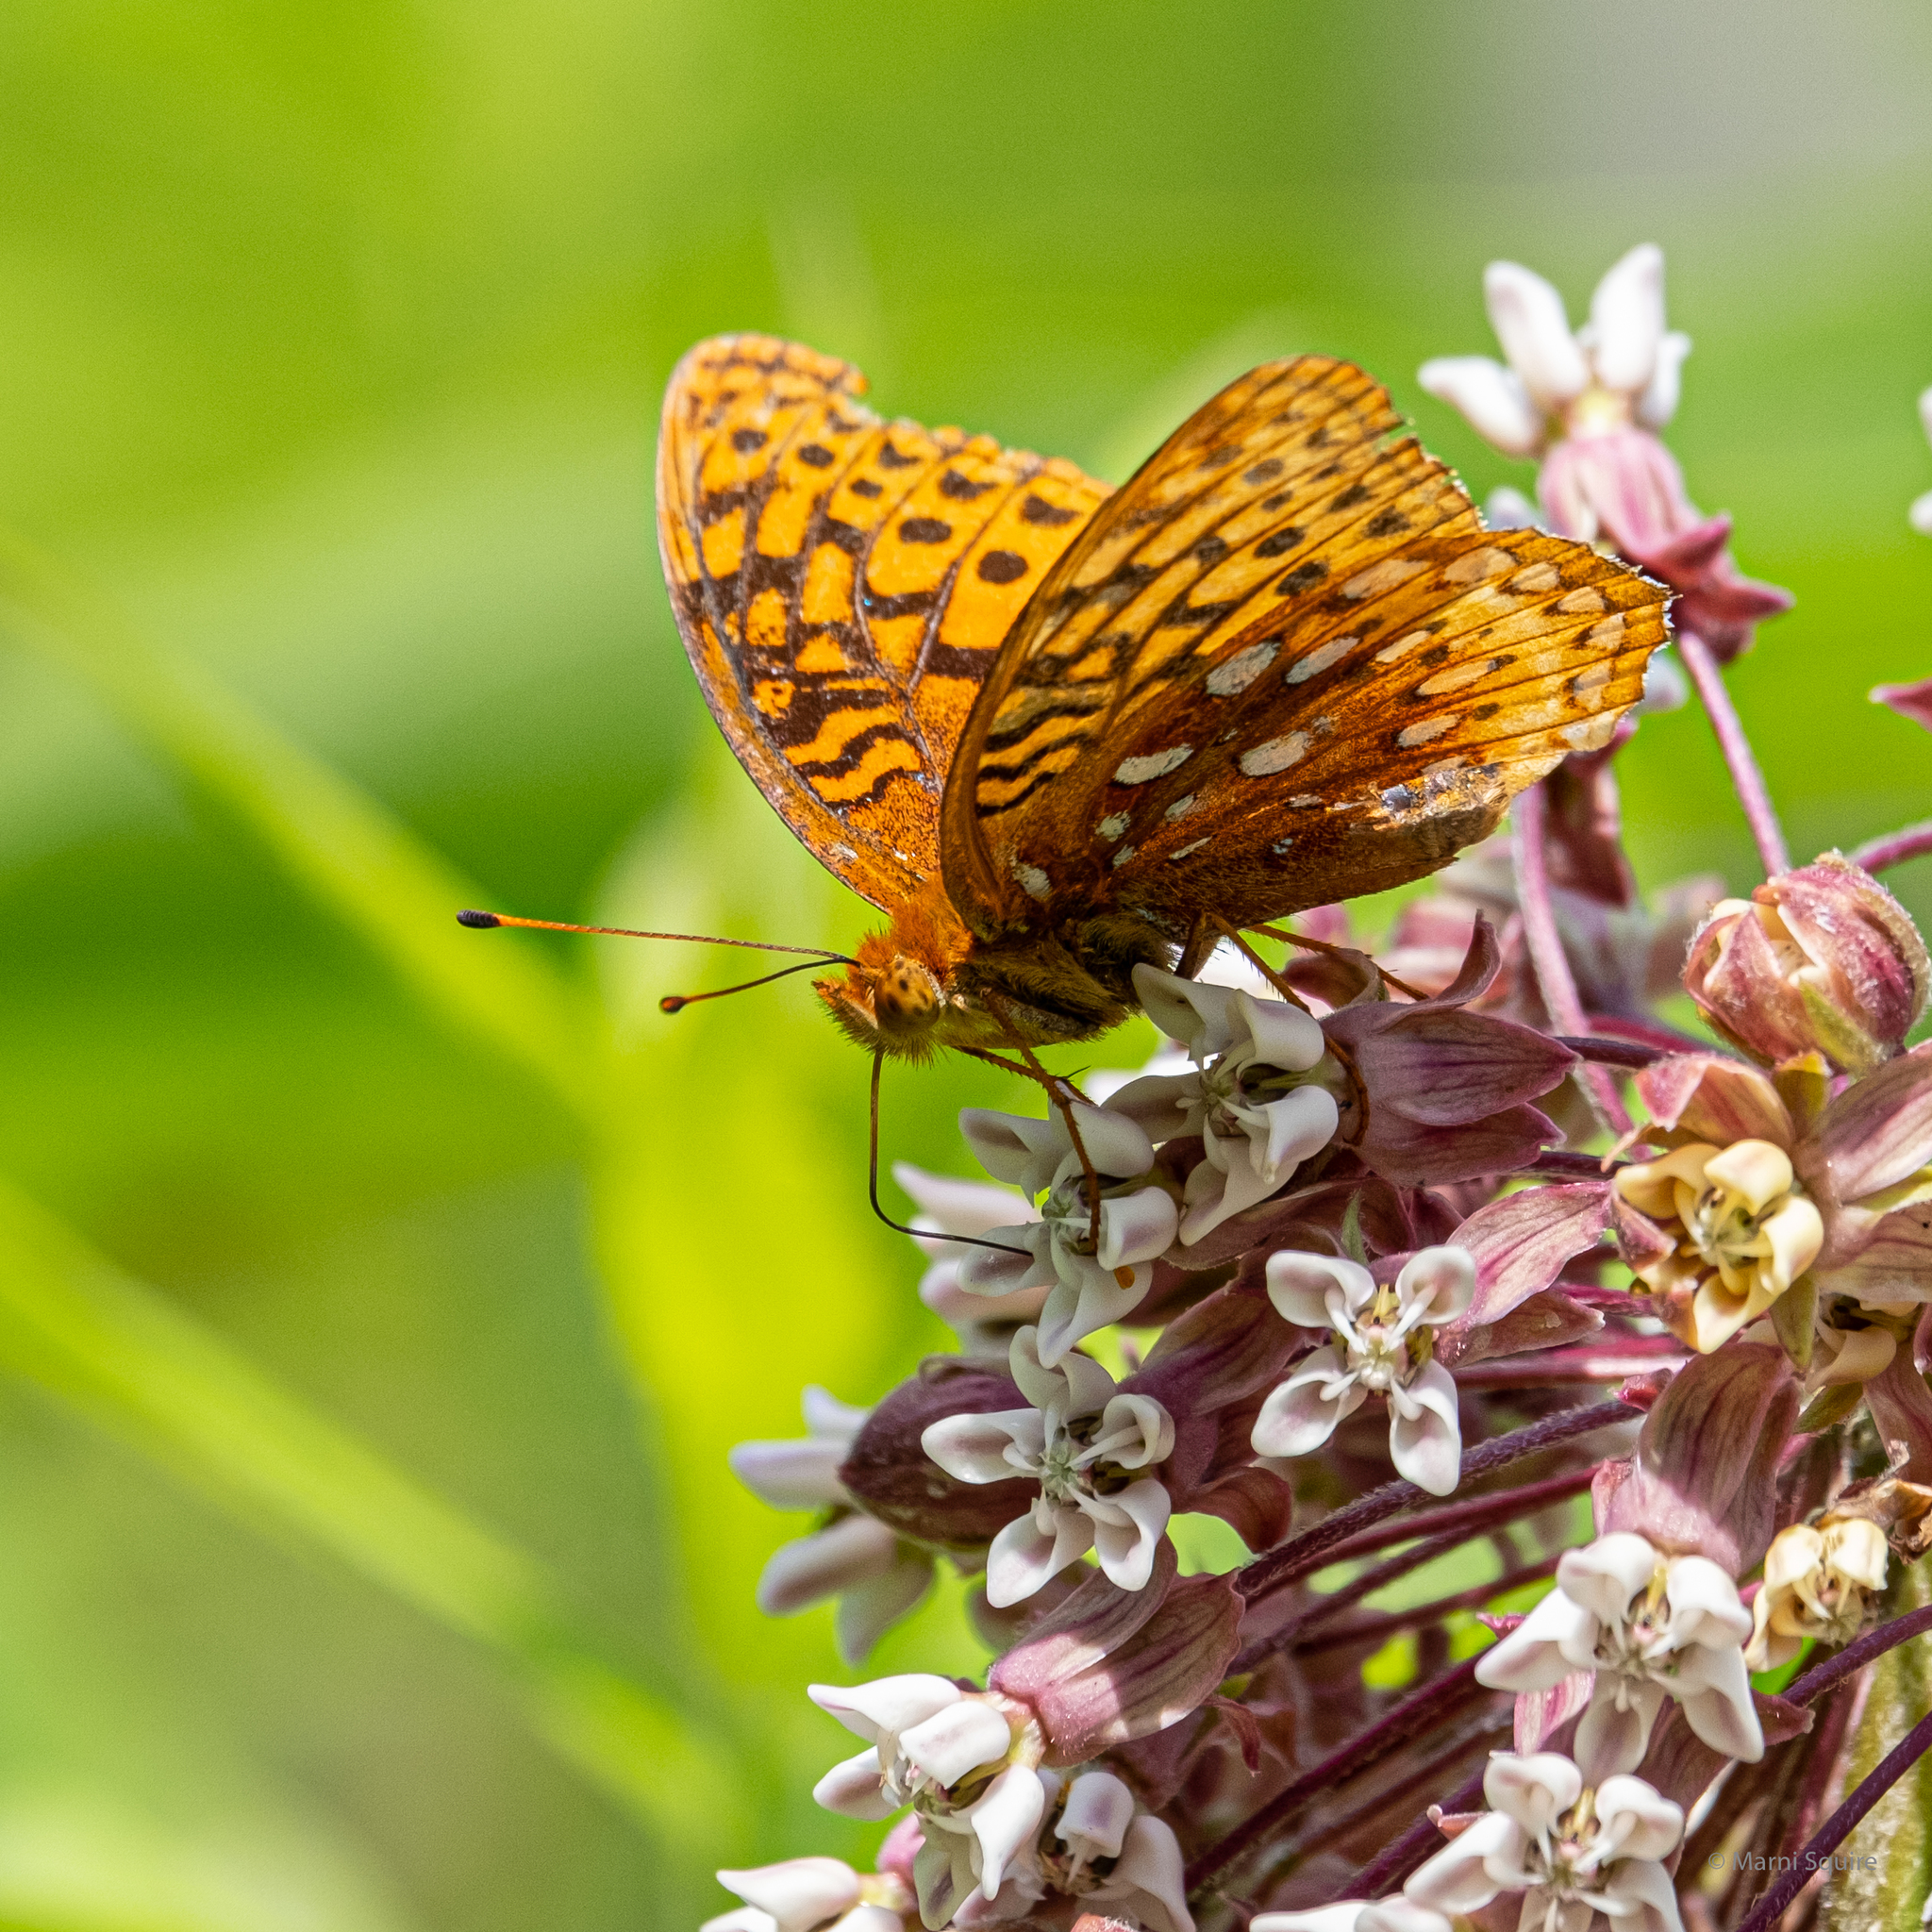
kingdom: Animalia
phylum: Arthropoda
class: Insecta
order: Lepidoptera
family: Nymphalidae
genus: Speyeria
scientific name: Speyeria cybele
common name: Great spangled fritillary
